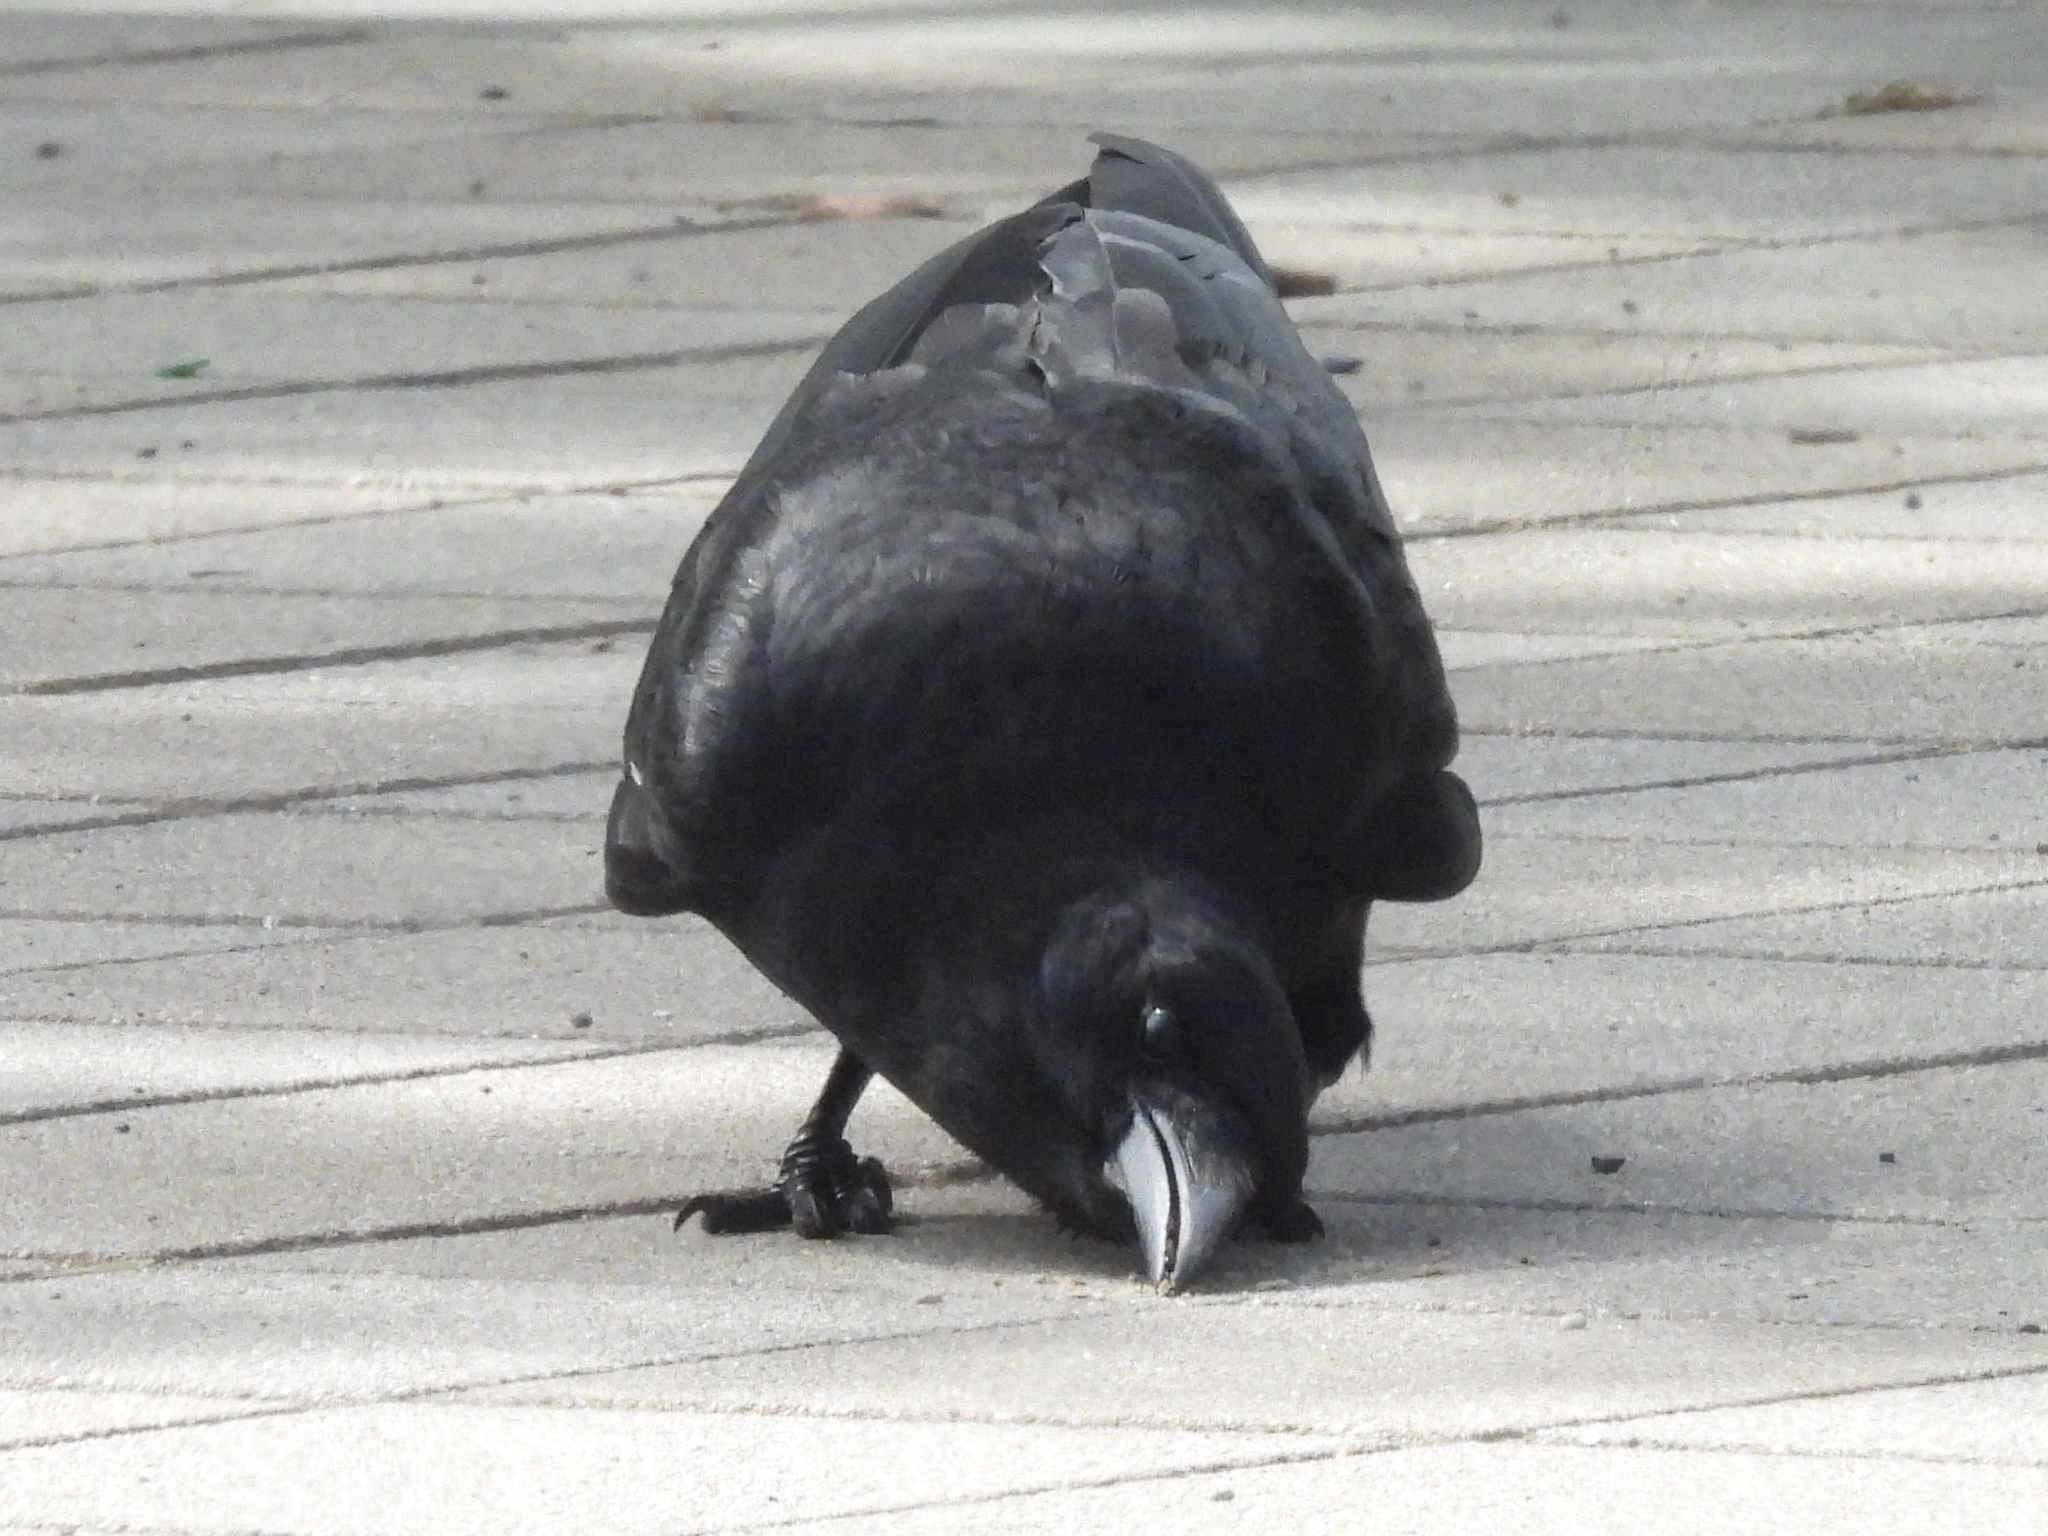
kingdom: Animalia
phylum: Chordata
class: Aves
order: Passeriformes
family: Corvidae
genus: Corvus
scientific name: Corvus brachyrhynchos
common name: American crow
